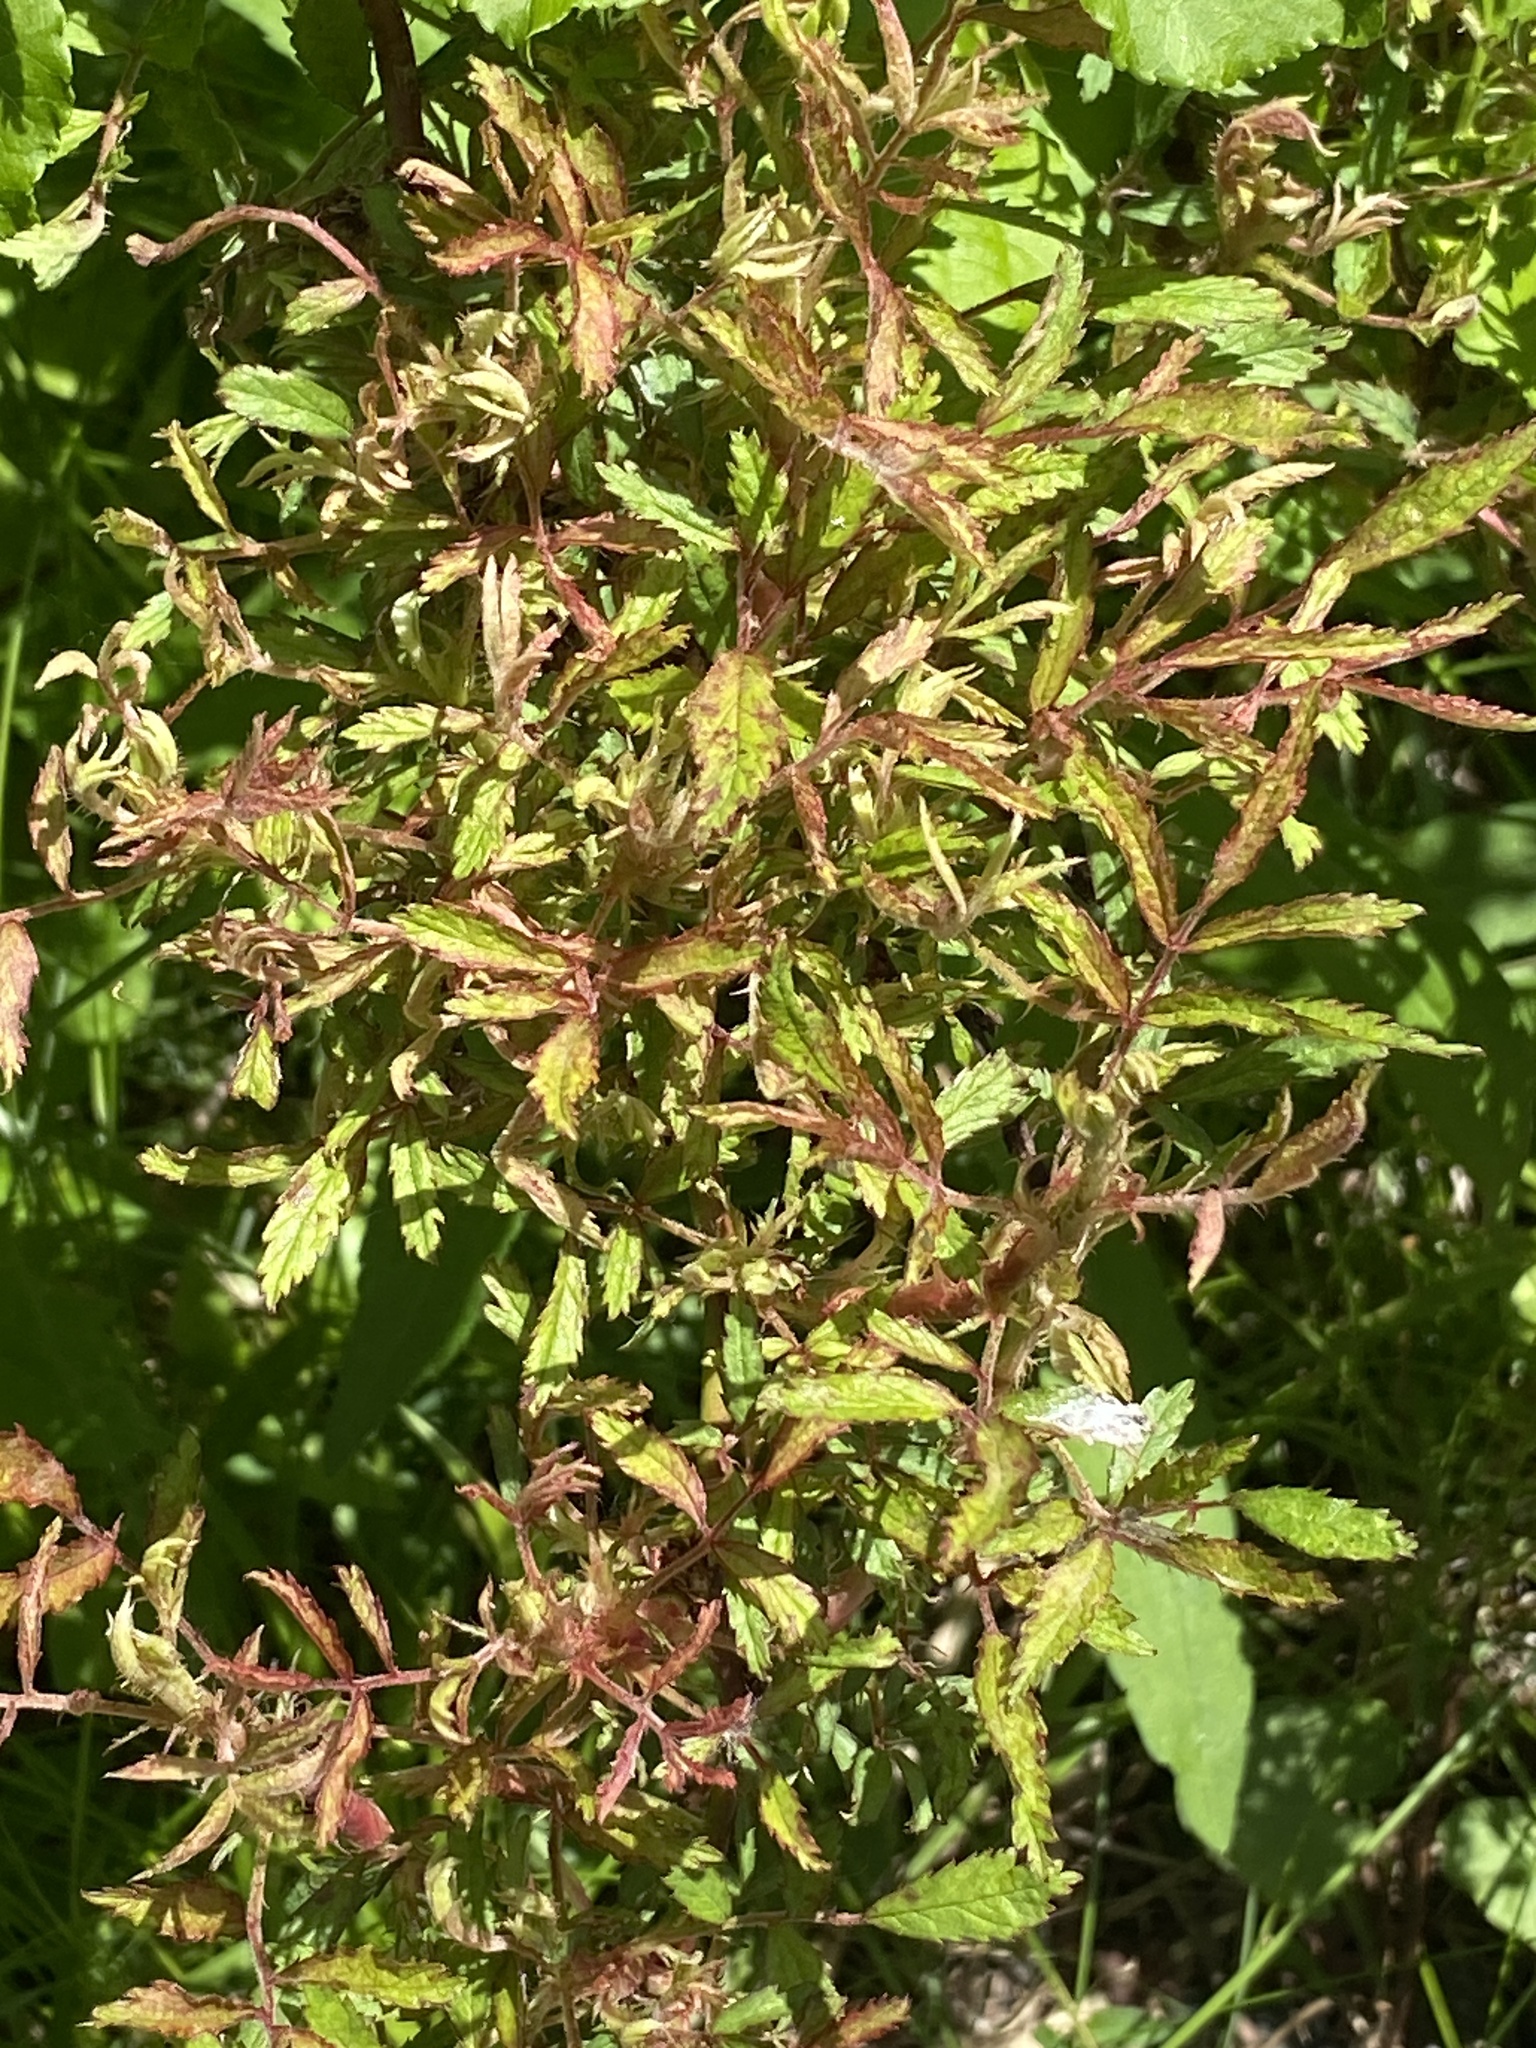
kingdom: Viruses
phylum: Negarnaviricota
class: Ellioviricetes
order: Bunyavirales
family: Fimoviridae
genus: Emaravirus
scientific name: Emaravirus rosae
